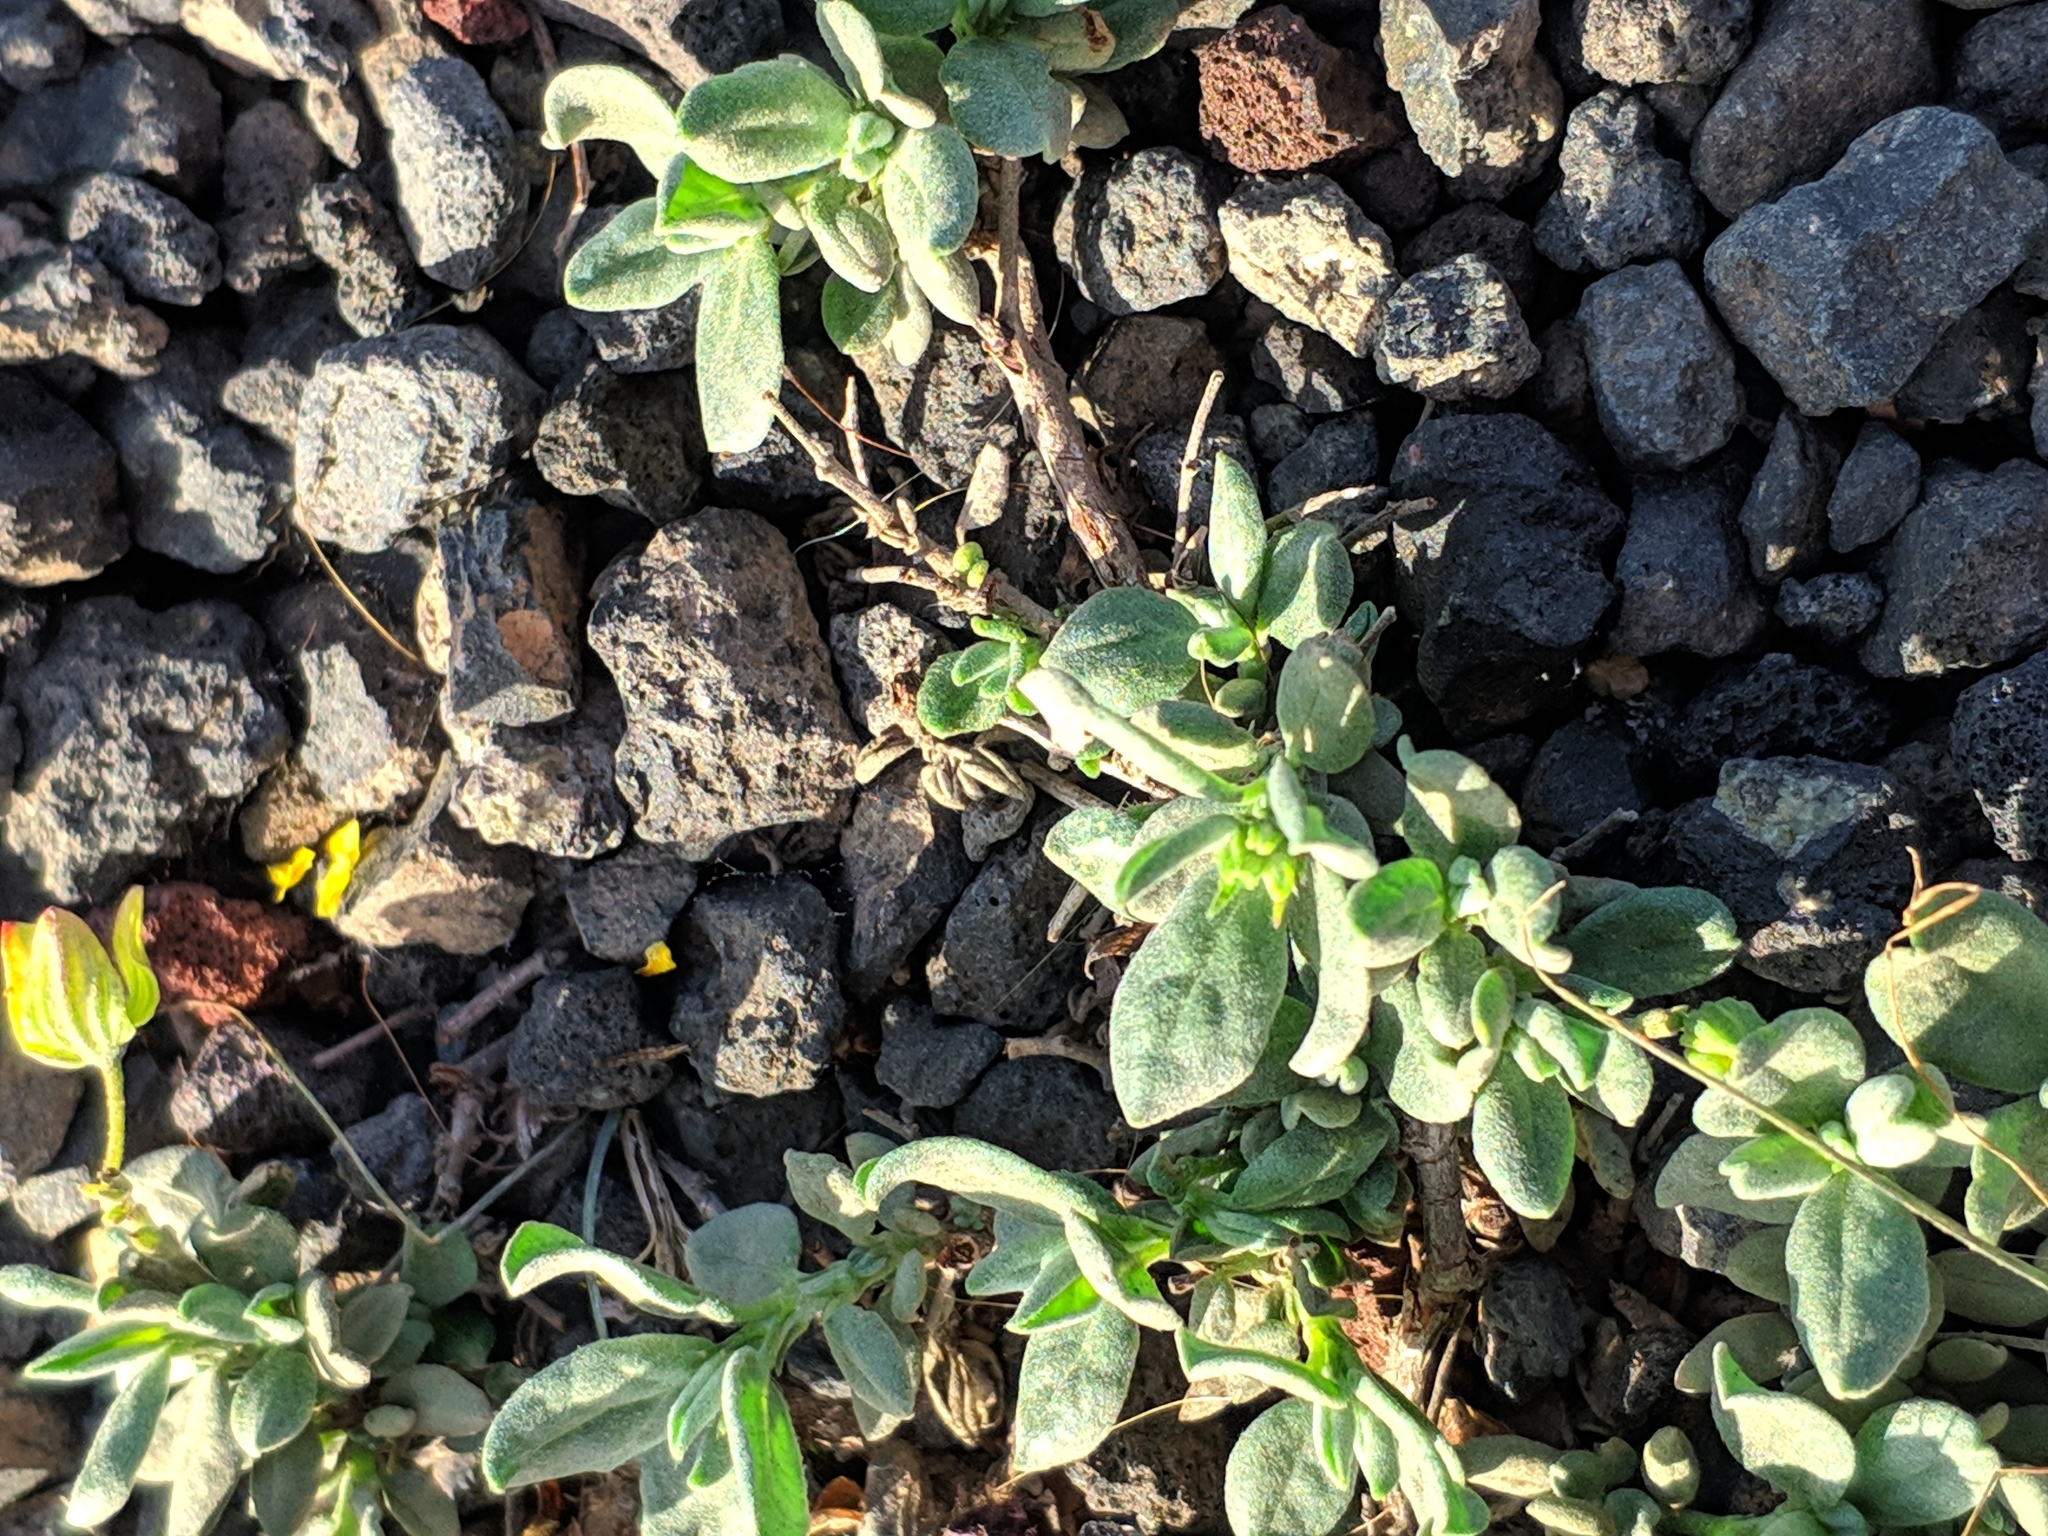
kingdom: Plantae
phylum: Tracheophyta
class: Magnoliopsida
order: Malvales
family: Cistaceae
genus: Helianthemum
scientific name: Helianthemum canariense
